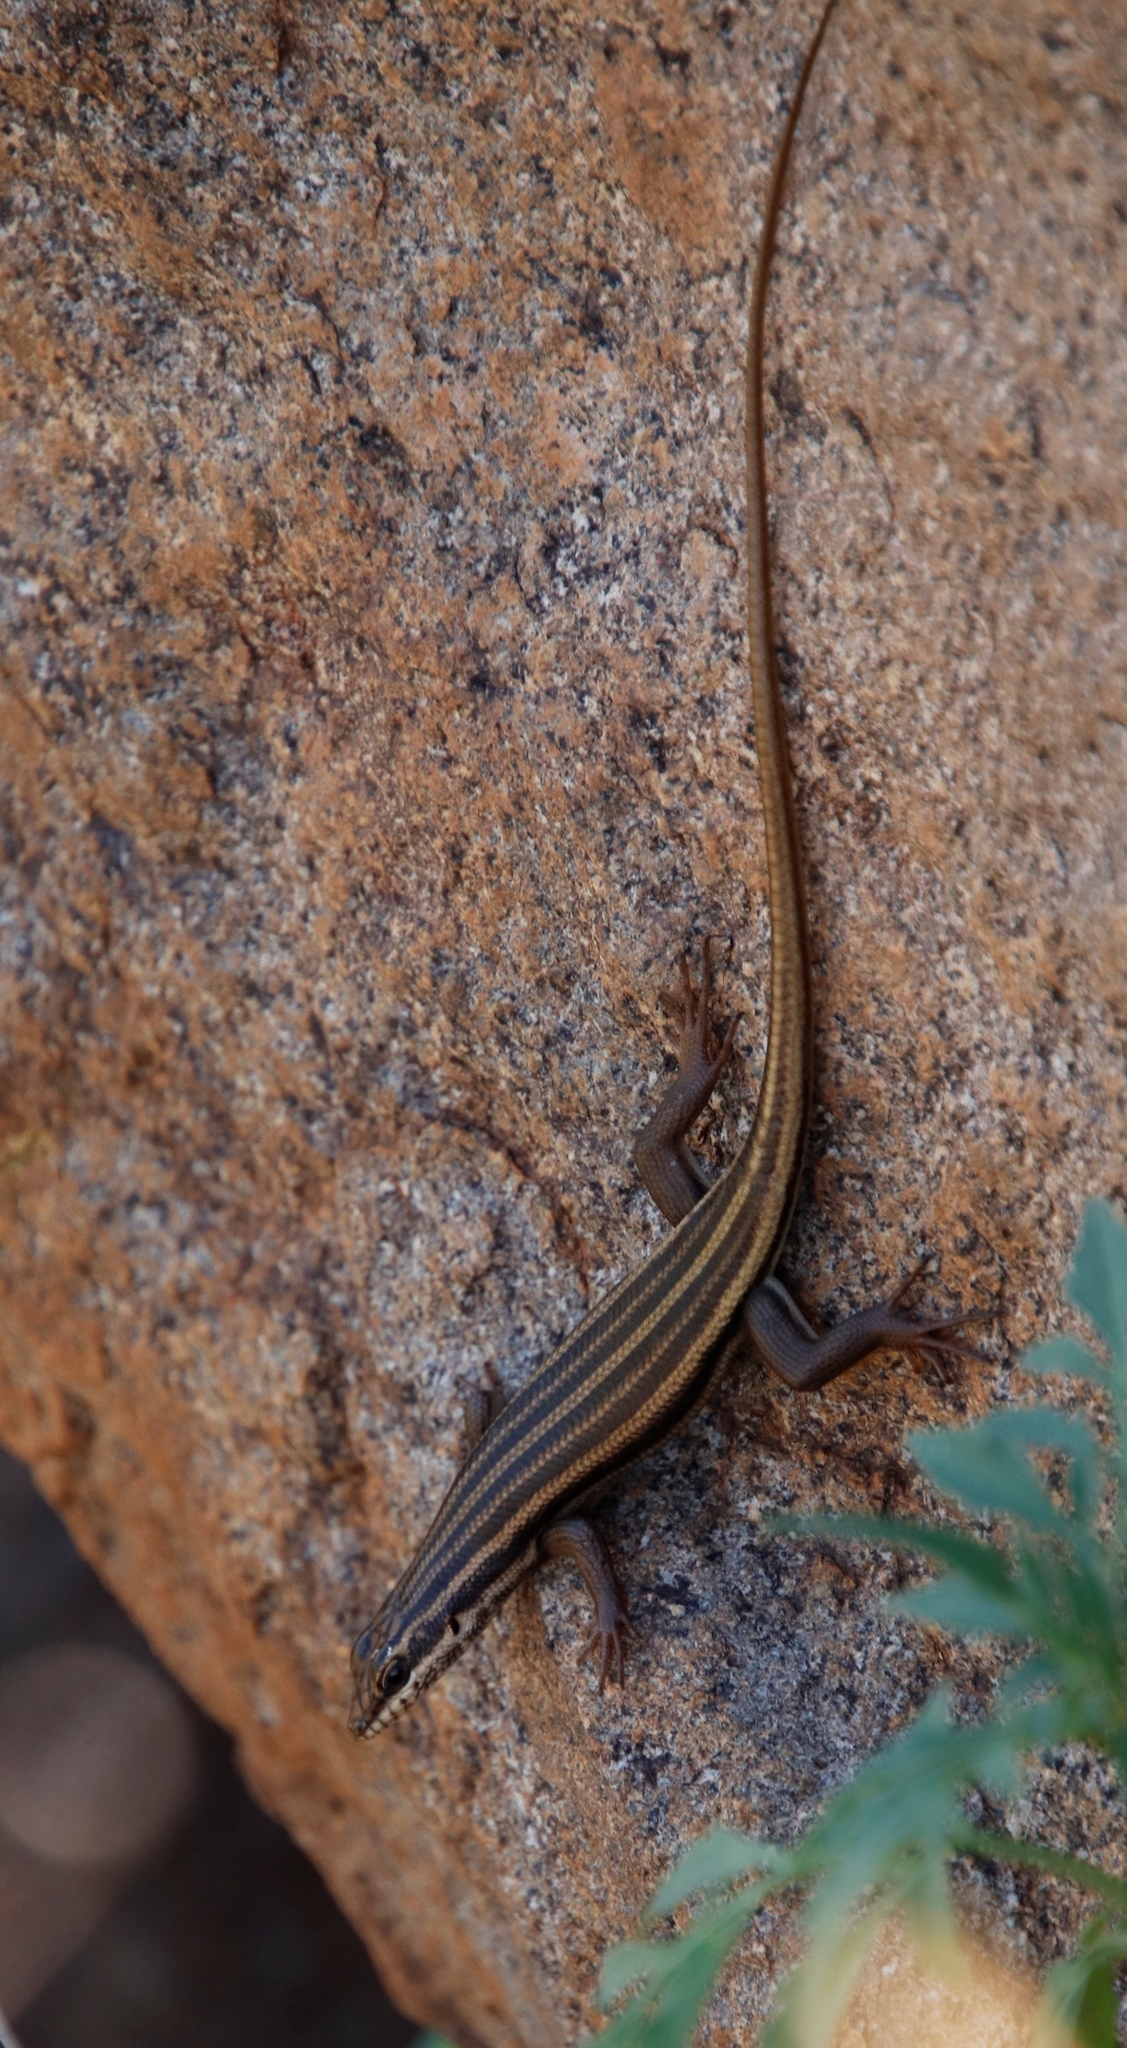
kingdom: Animalia
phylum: Chordata
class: Squamata
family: Scincidae
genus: Trachylepis
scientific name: Trachylepis sulcata
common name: Western rock skink
